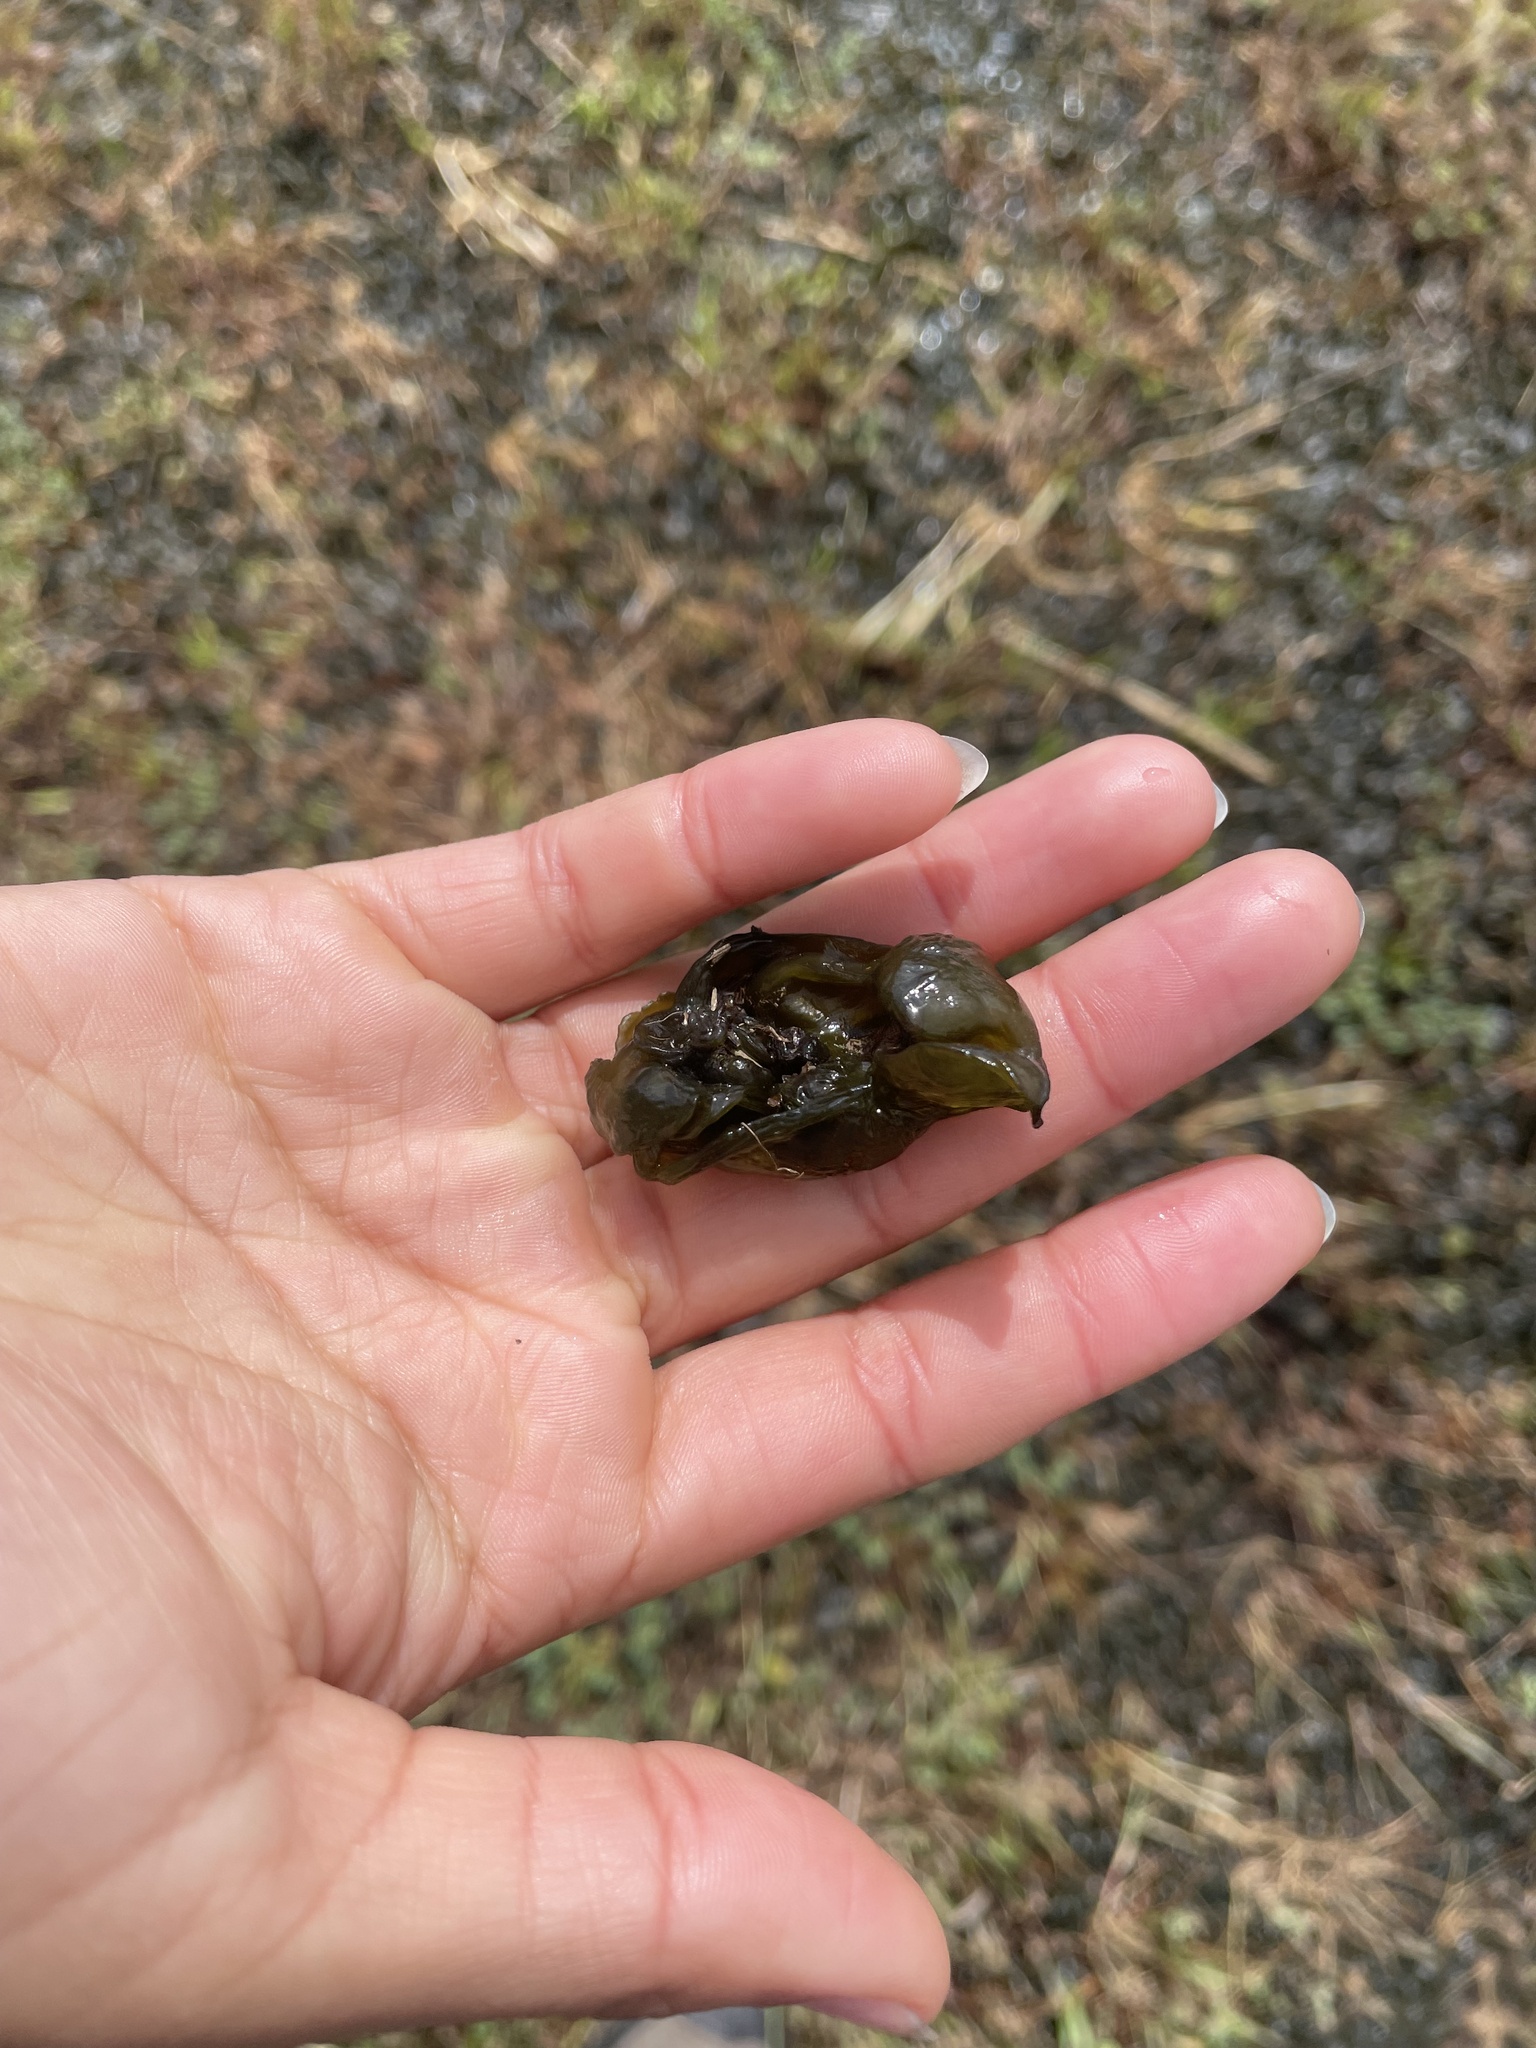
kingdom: Bacteria
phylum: Cyanobacteria
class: Cyanobacteriia
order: Cyanobacteriales
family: Nostocaceae
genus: Nostoc
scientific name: Nostoc commune
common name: Star jelly
